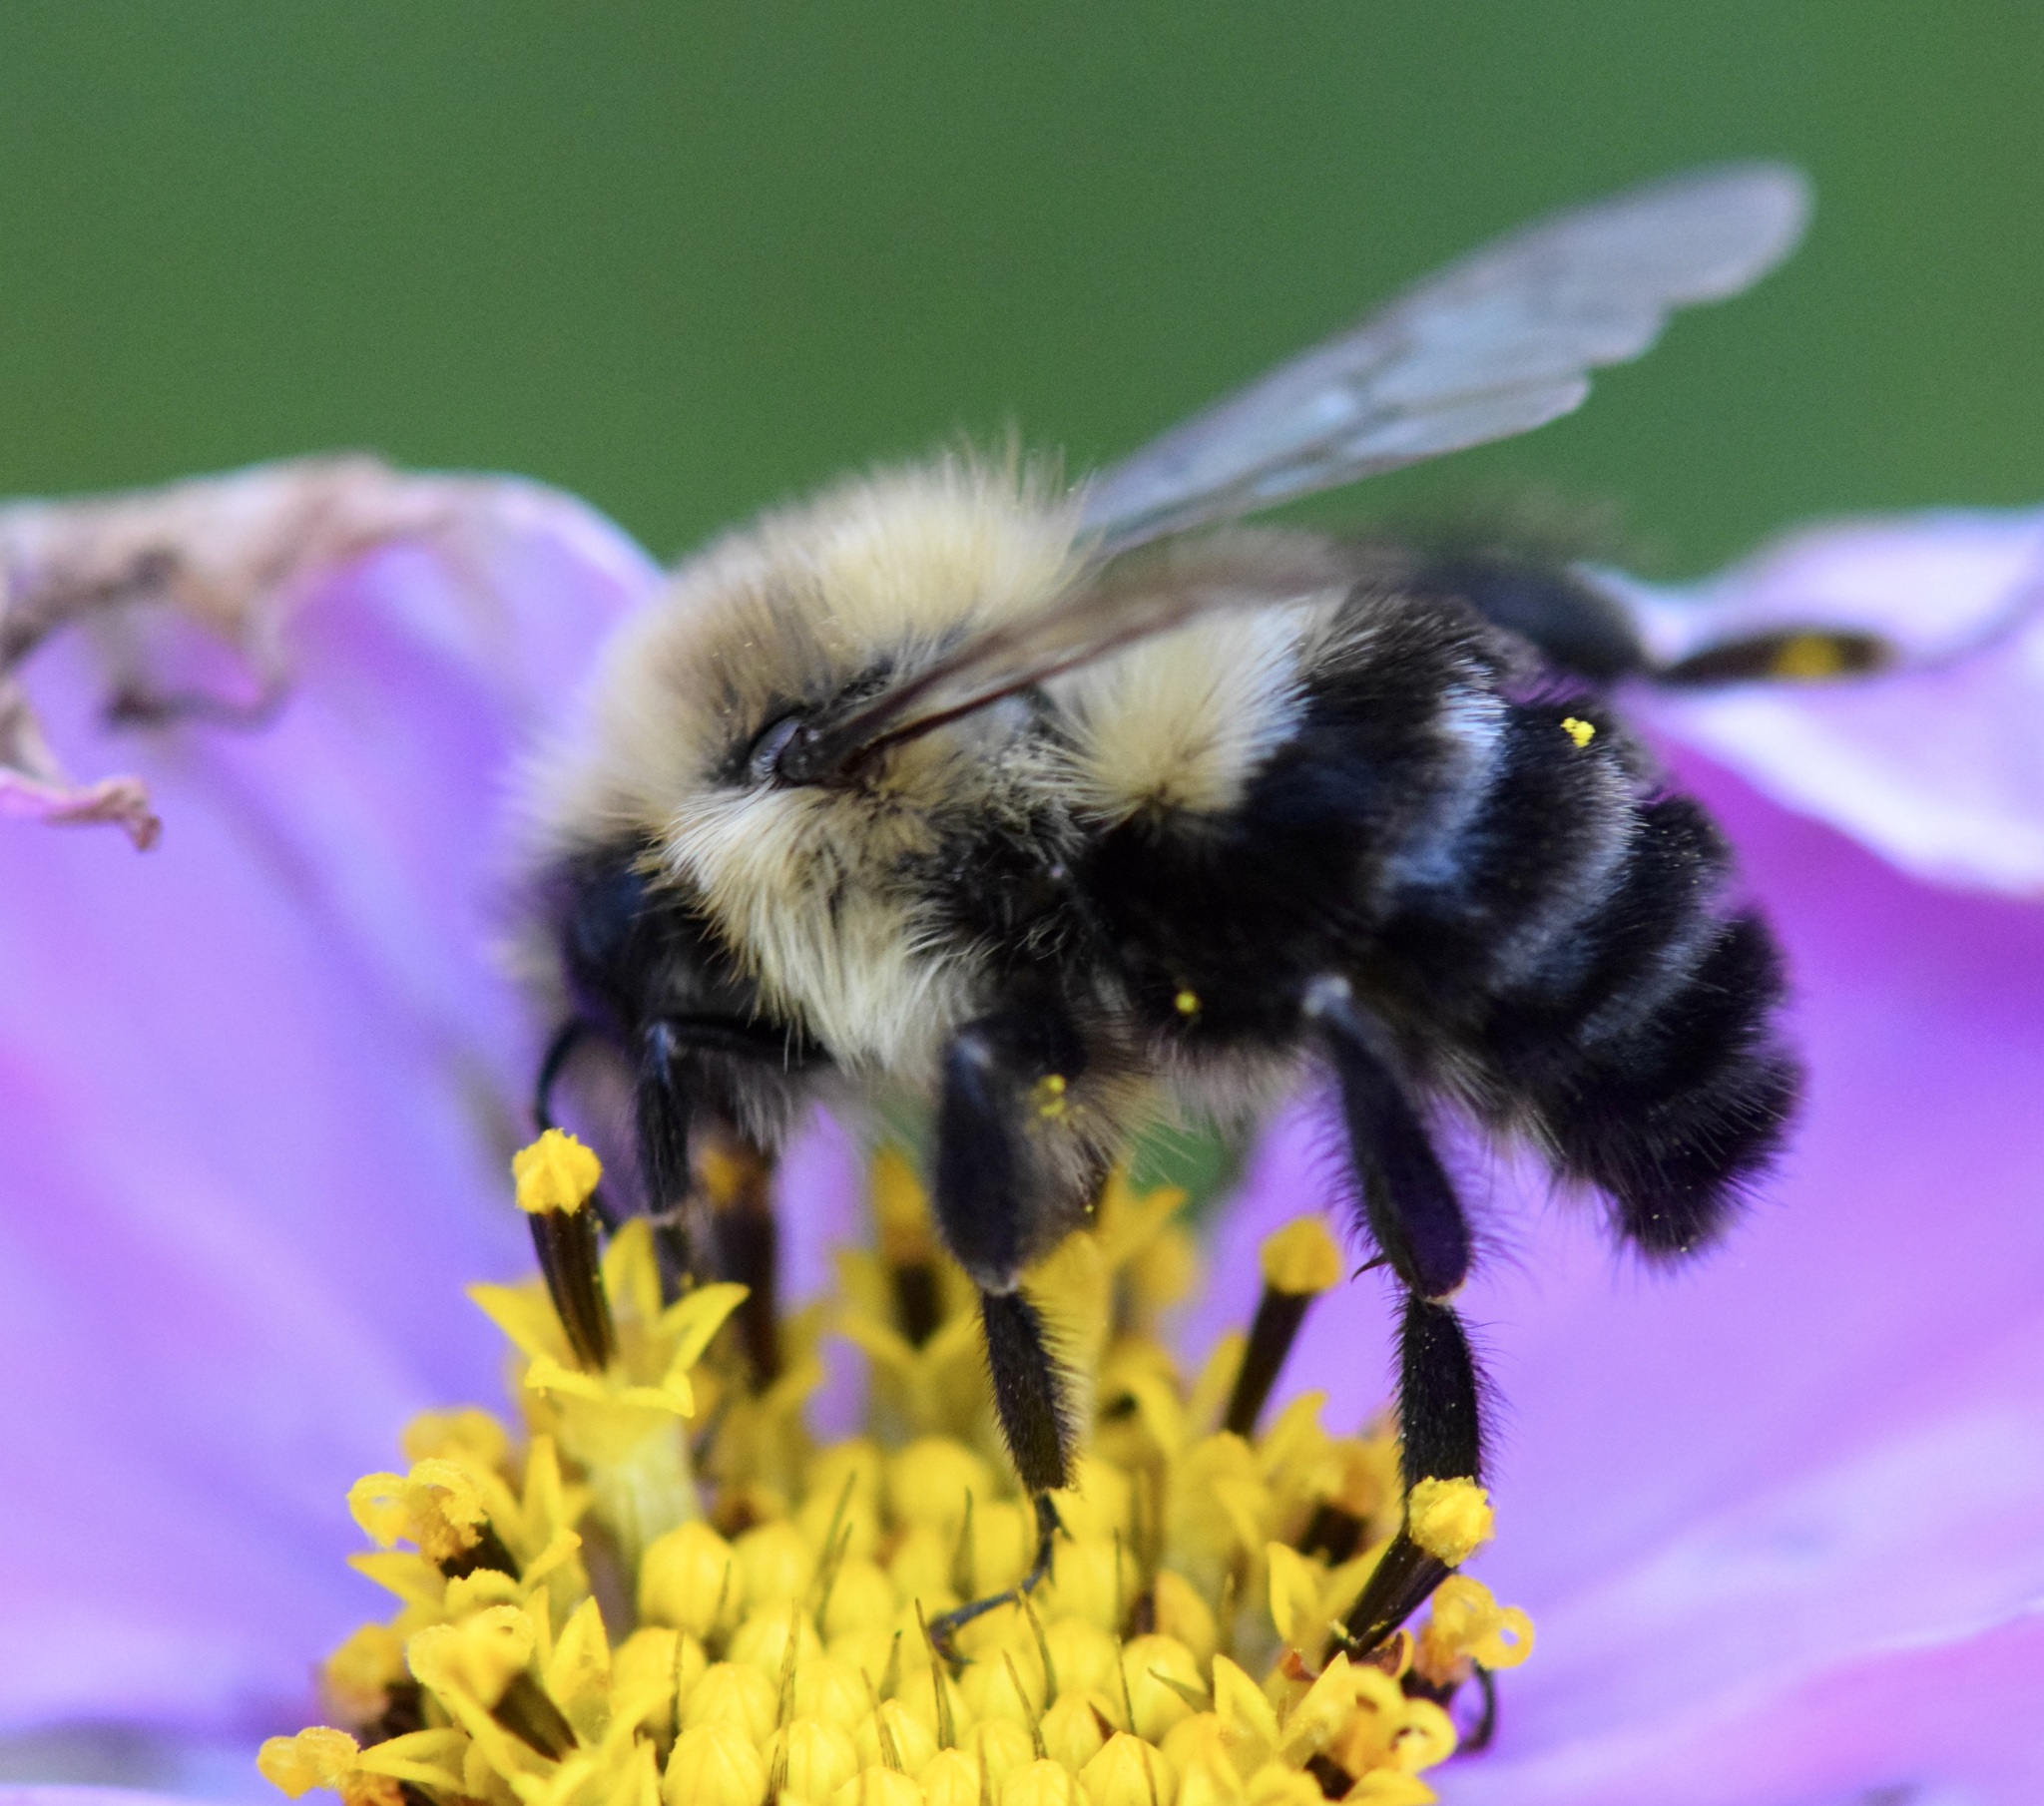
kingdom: Animalia
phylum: Arthropoda
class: Insecta
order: Hymenoptera
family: Apidae
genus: Bombus
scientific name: Bombus impatiens
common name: Common eastern bumble bee
